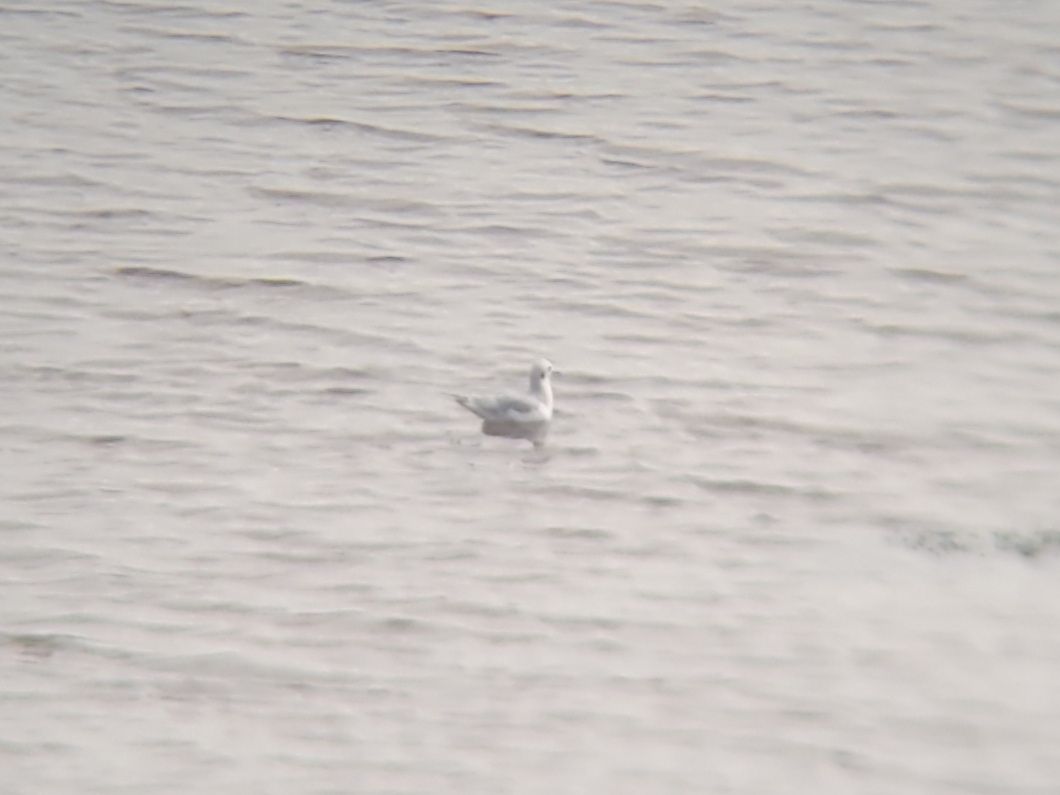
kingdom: Animalia
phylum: Chordata
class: Aves
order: Charadriiformes
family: Laridae
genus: Chroicocephalus
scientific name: Chroicocephalus philadelphia
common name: Bonaparte's gull
